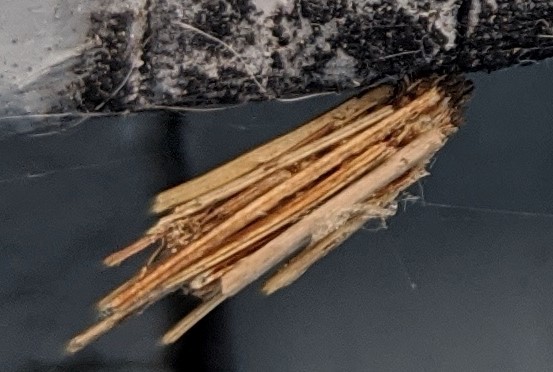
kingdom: Animalia
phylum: Arthropoda
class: Insecta
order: Lepidoptera
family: Psychidae
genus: Psyche
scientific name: Psyche casta
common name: Common sweep
